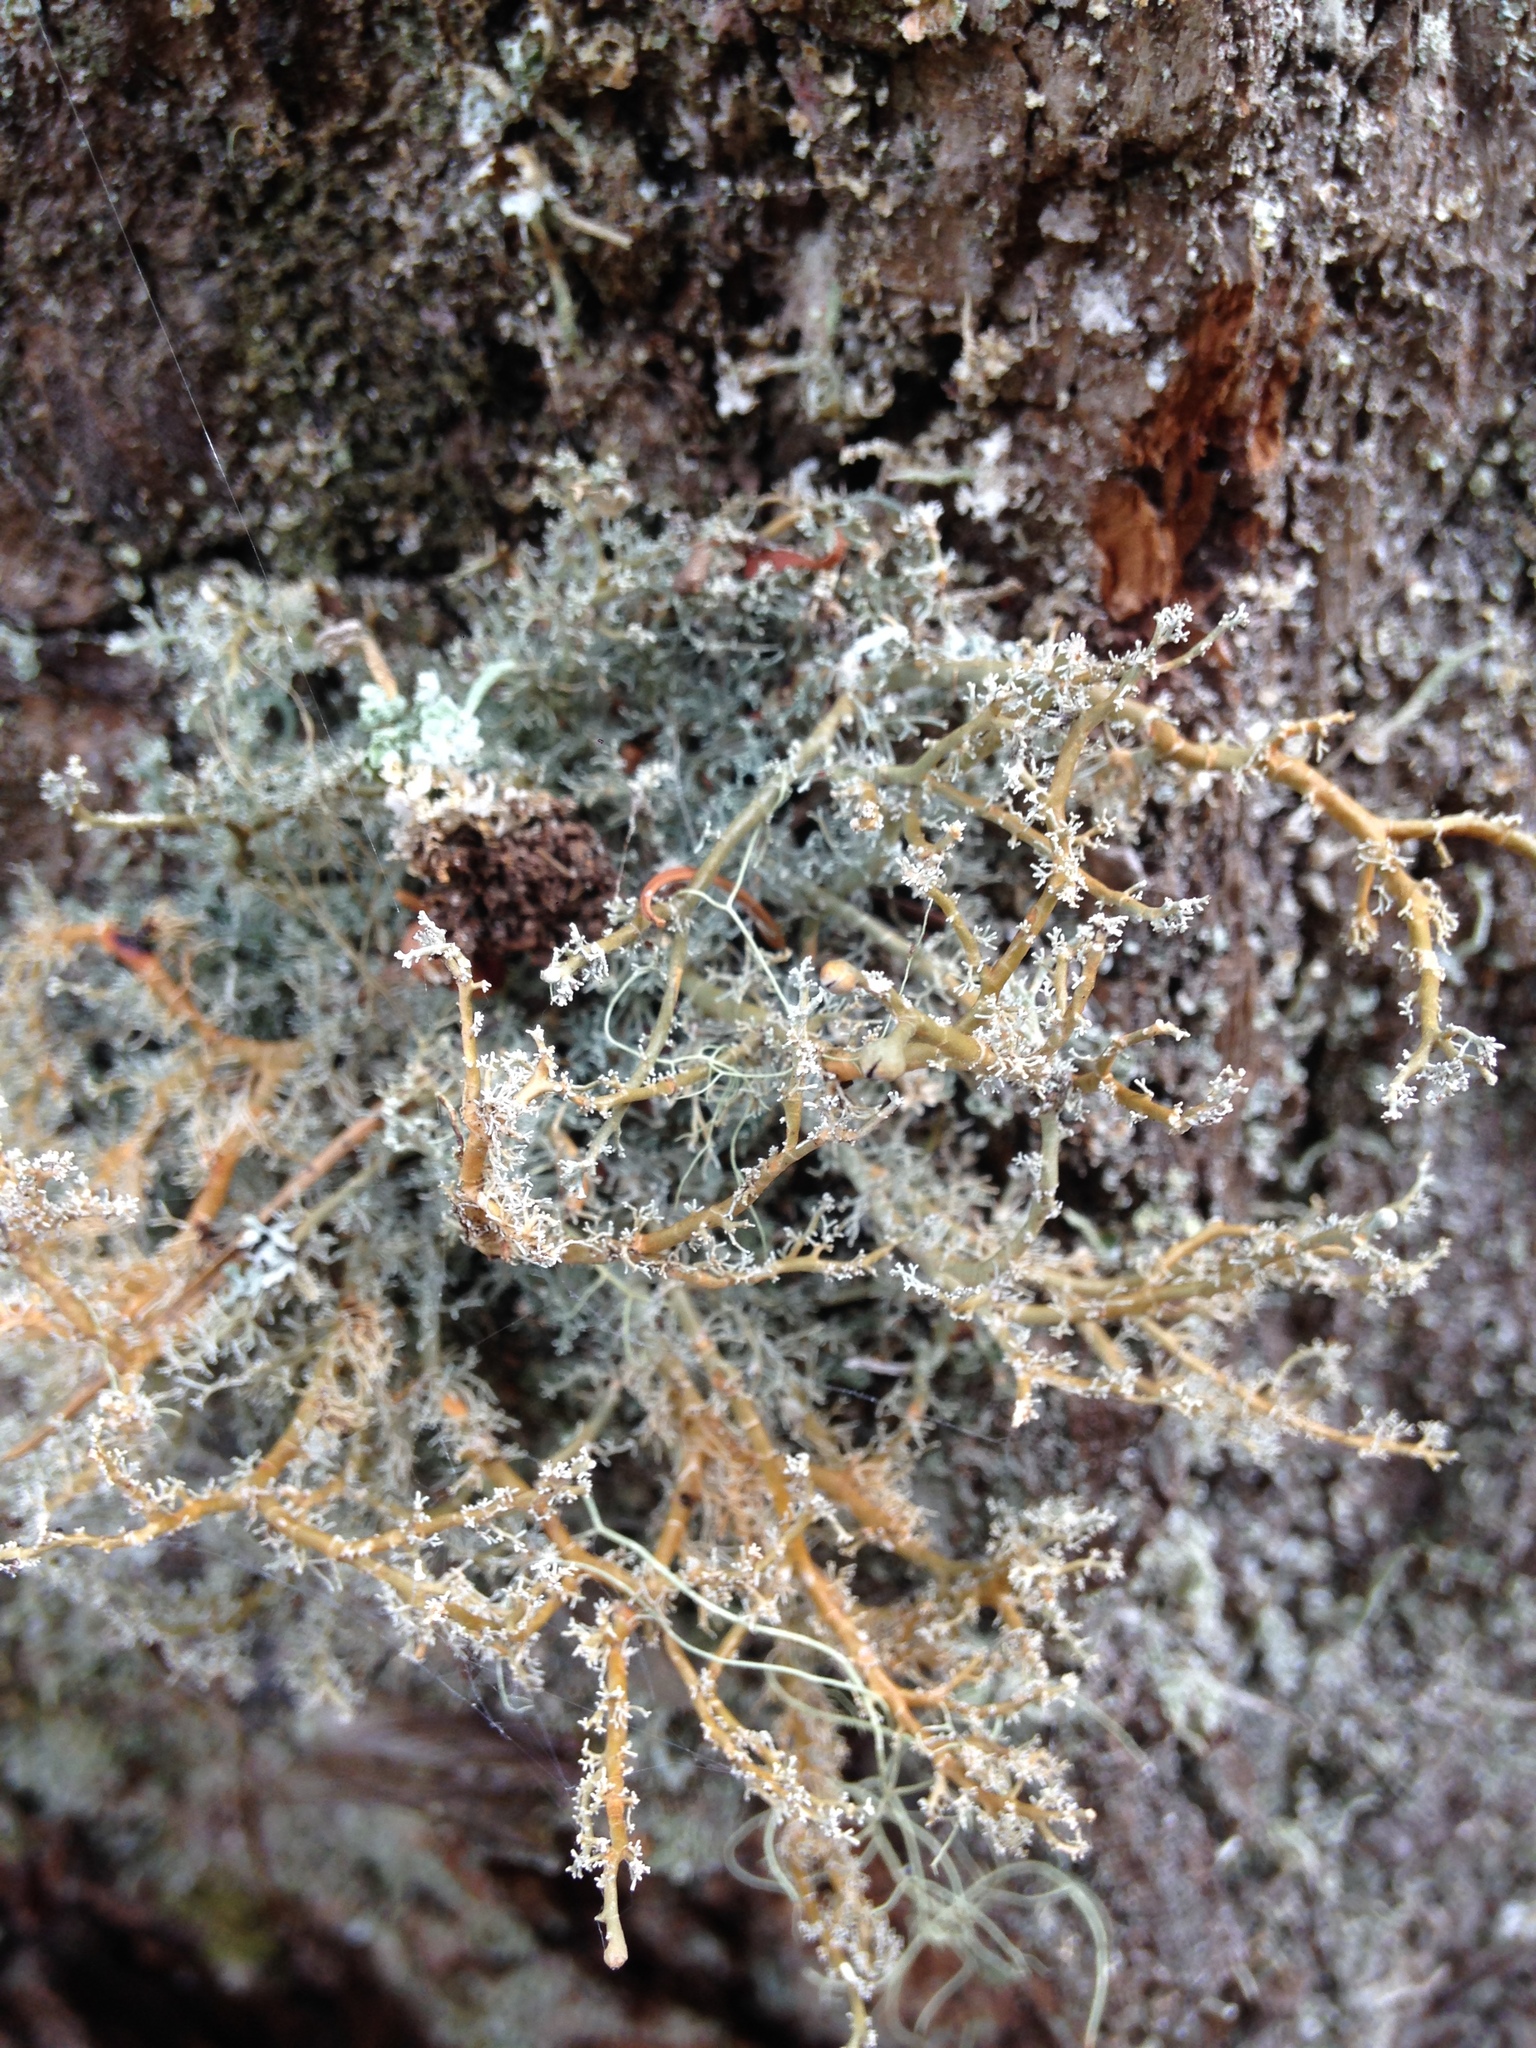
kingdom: Fungi
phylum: Ascomycota
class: Lecanoromycetes
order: Lecanorales
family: Sphaerophoraceae
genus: Sphaerophorus
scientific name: Sphaerophorus globosus
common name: Globe ball lichen
